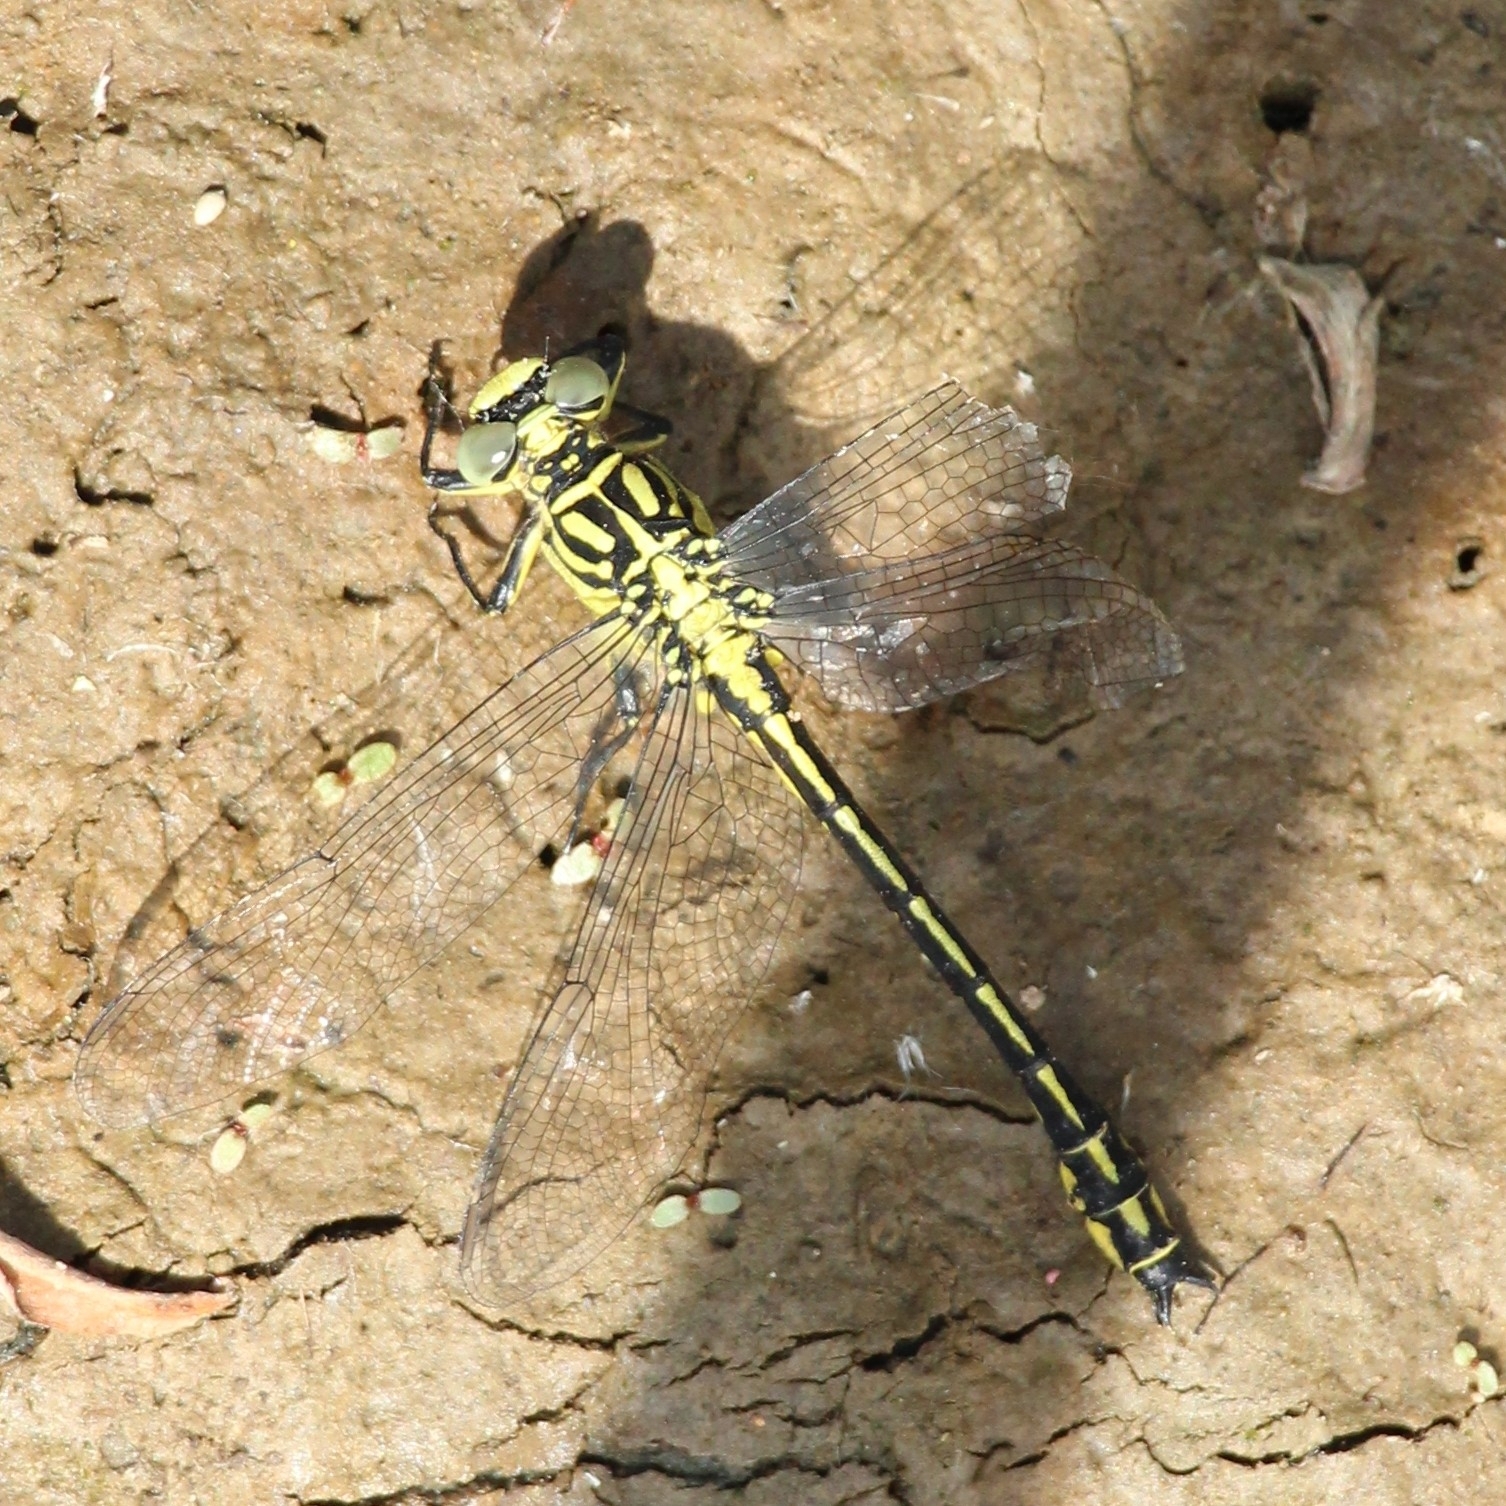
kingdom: Animalia
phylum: Arthropoda
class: Insecta
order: Odonata
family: Gomphidae
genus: Stylurus
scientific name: Stylurus flavipes
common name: River clubtail
